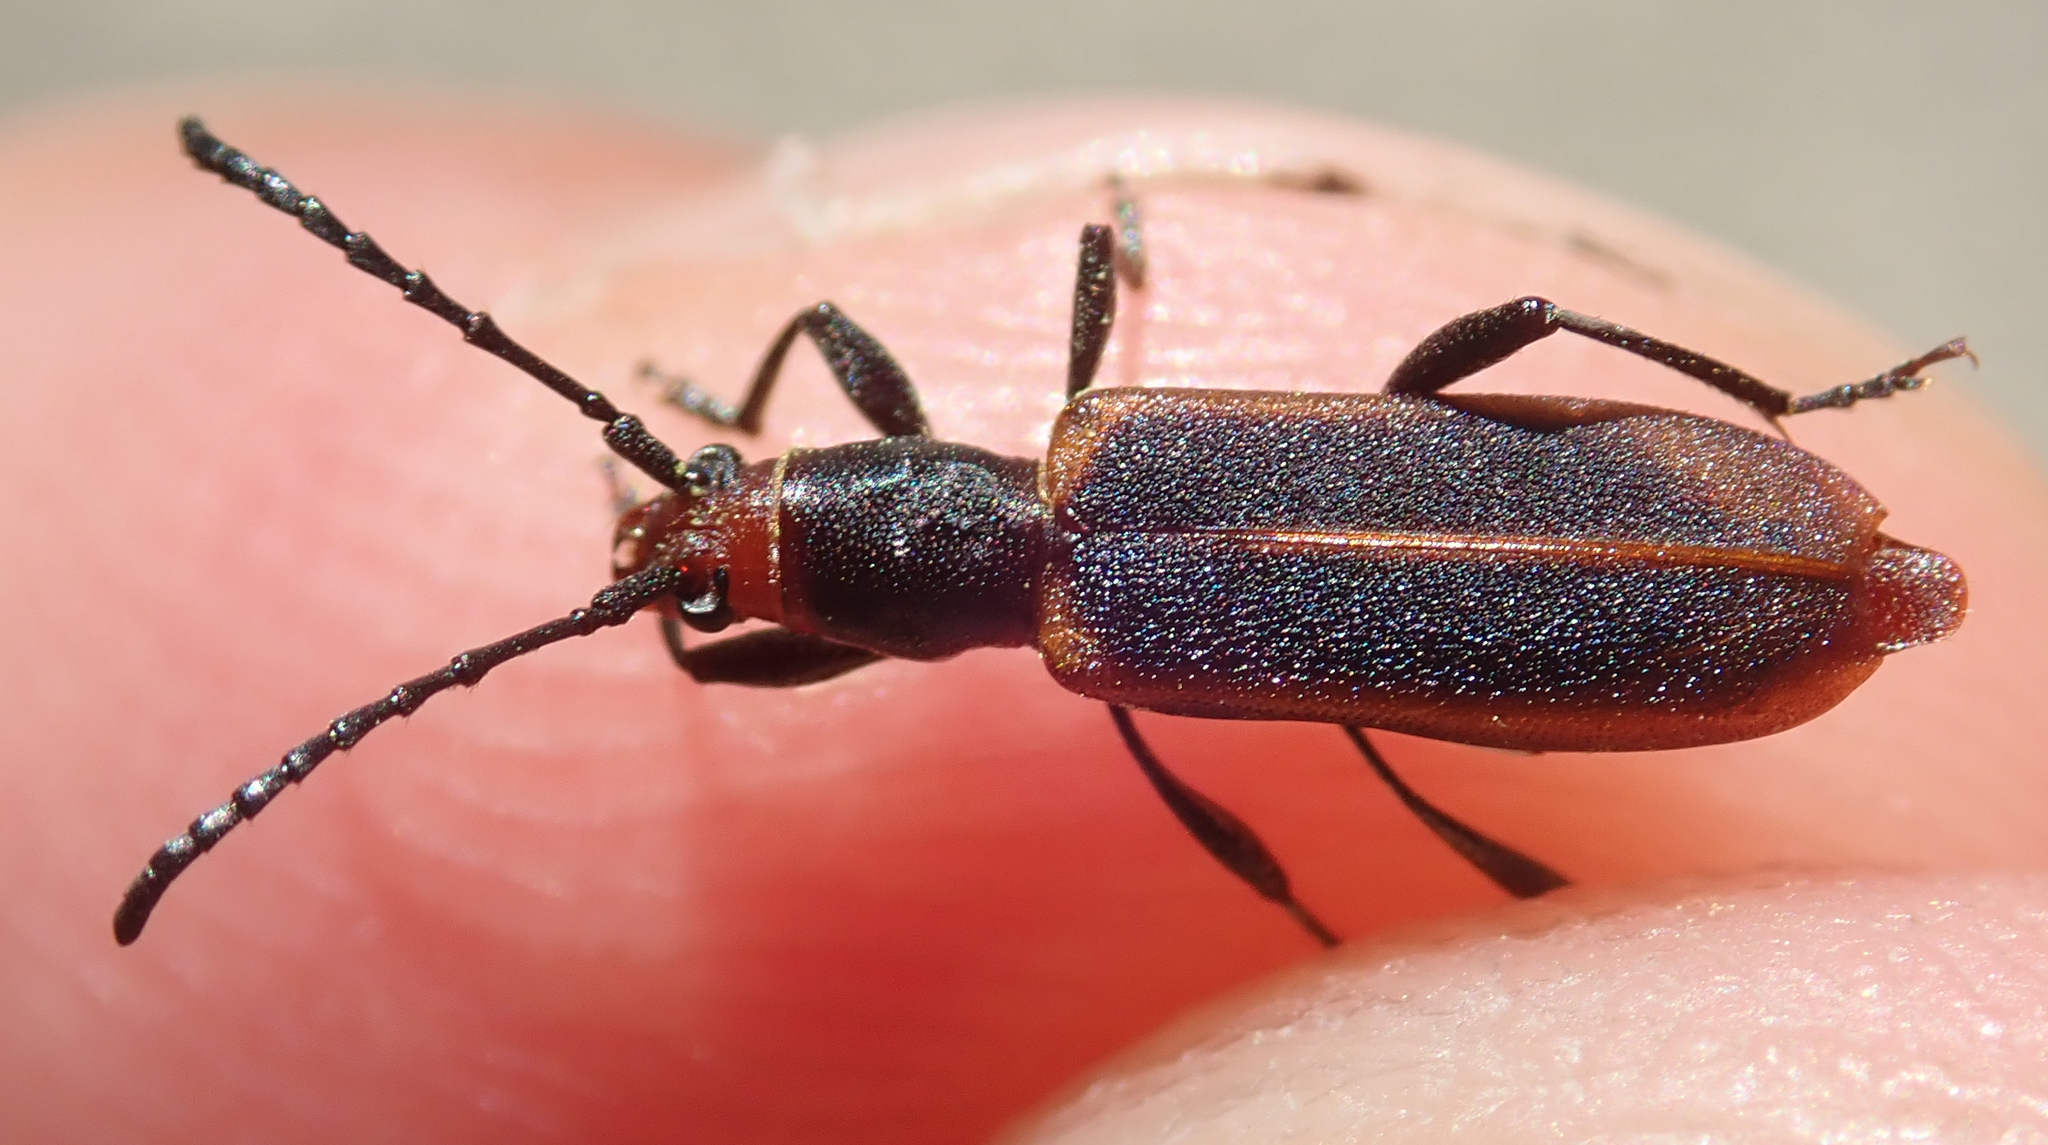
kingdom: Animalia
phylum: Arthropoda
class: Insecta
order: Coleoptera
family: Cerambycidae
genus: Dere
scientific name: Dere vittata
